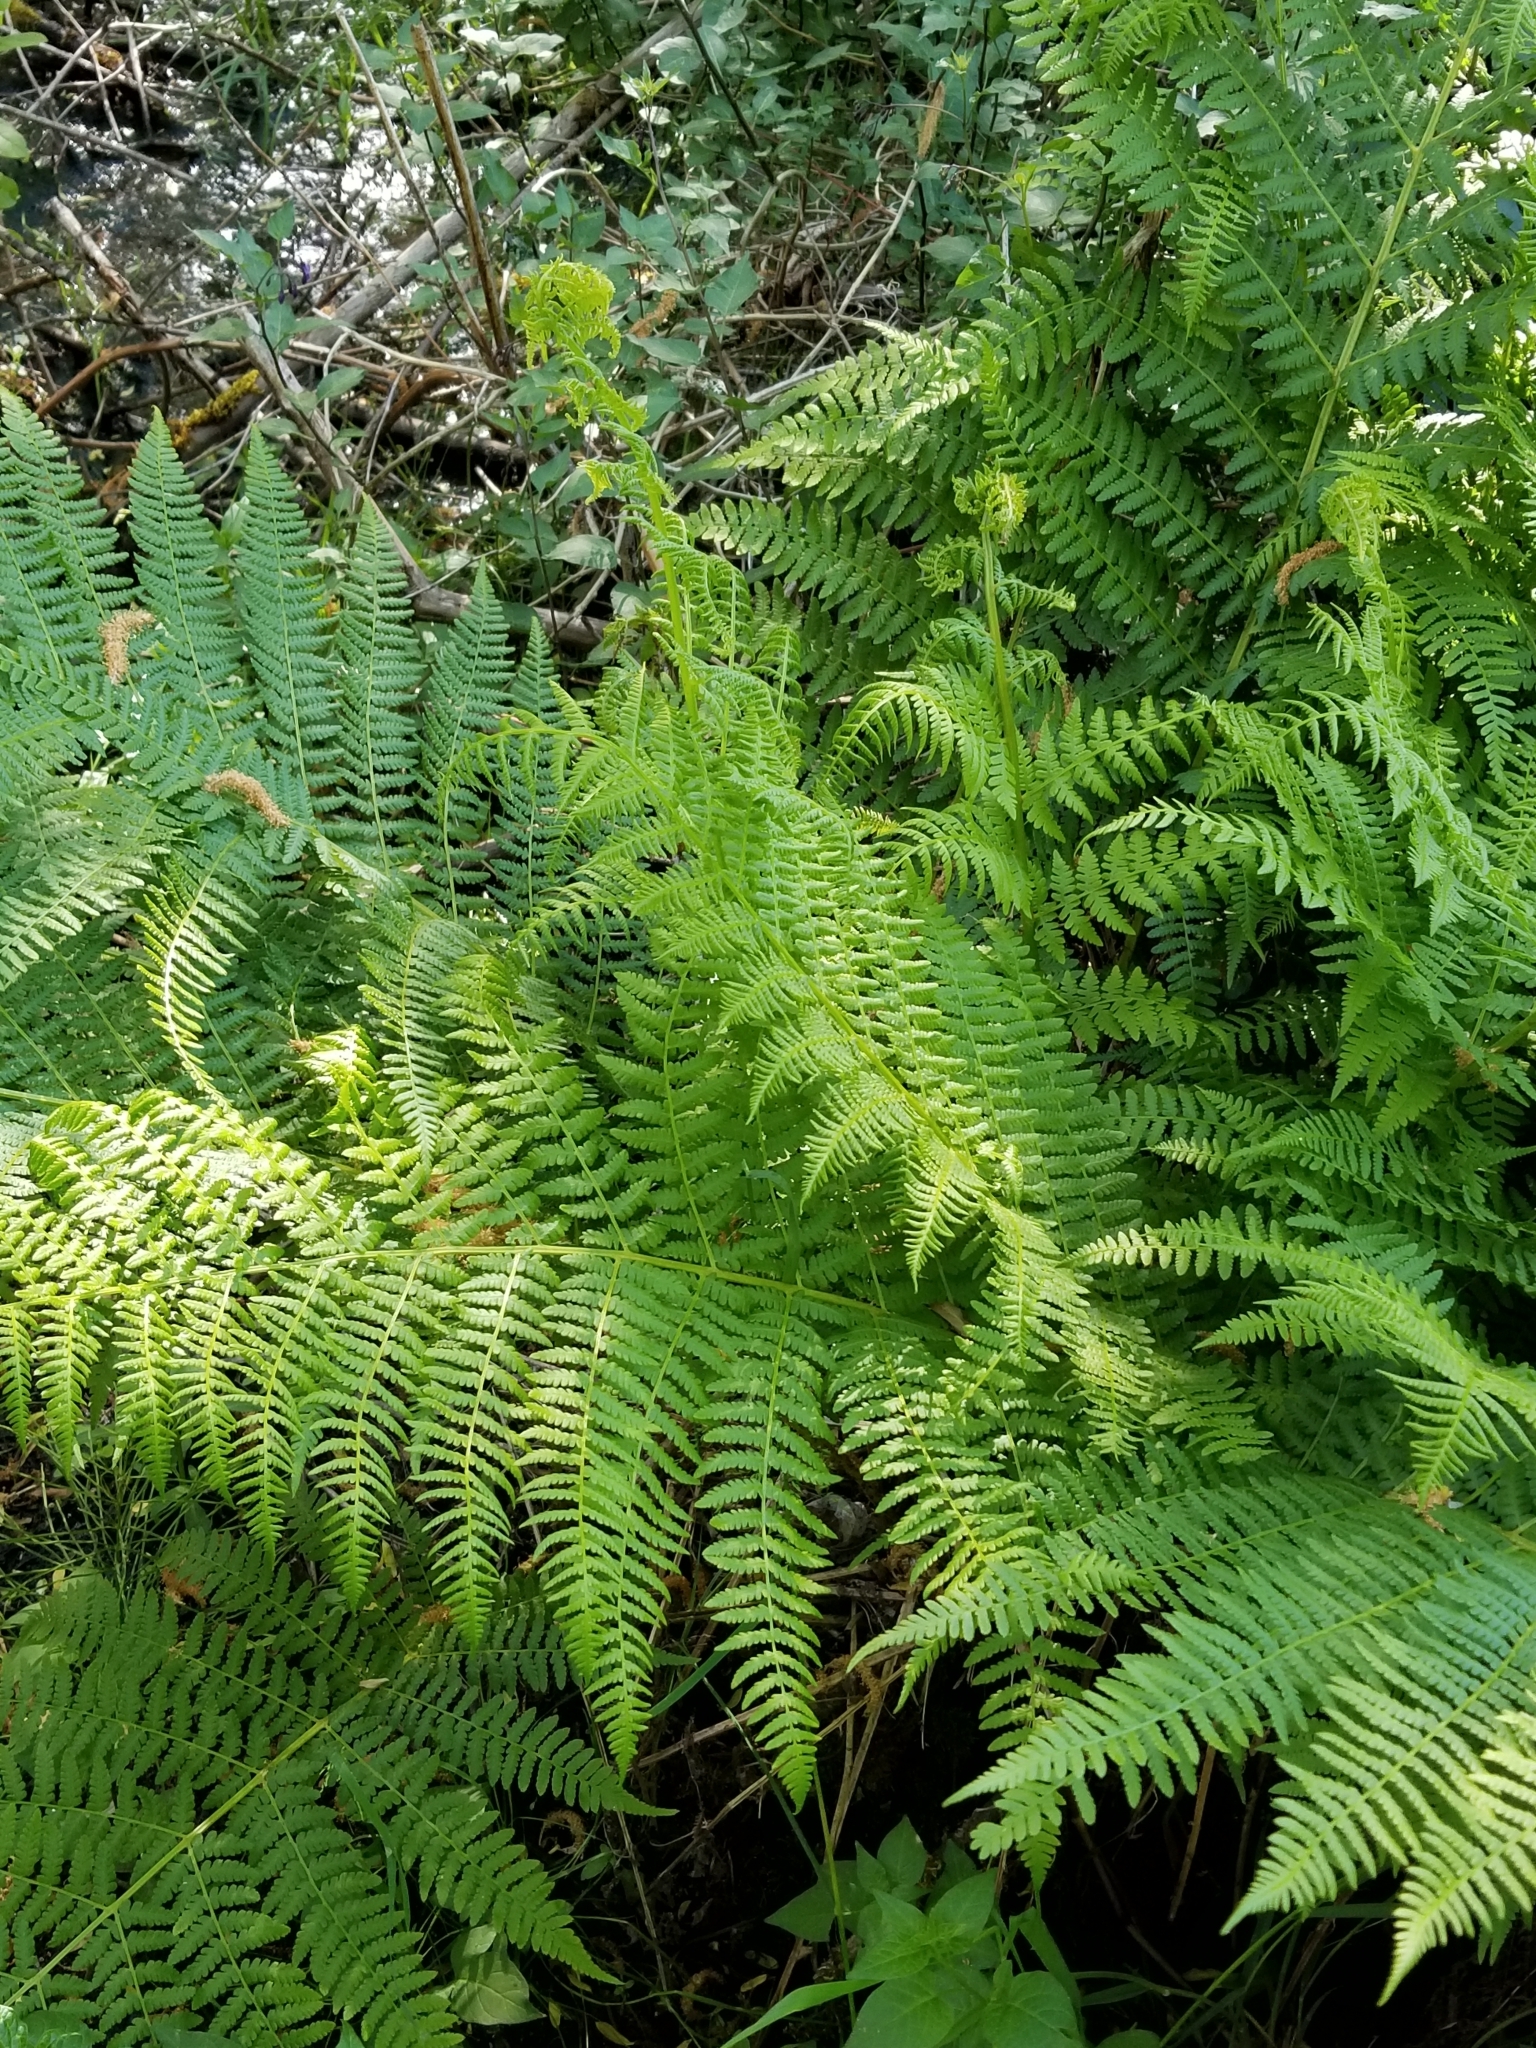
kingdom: Plantae
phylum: Tracheophyta
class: Polypodiopsida
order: Polypodiales
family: Athyriaceae
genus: Athyrium
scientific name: Athyrium filix-femina
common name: Lady fern
